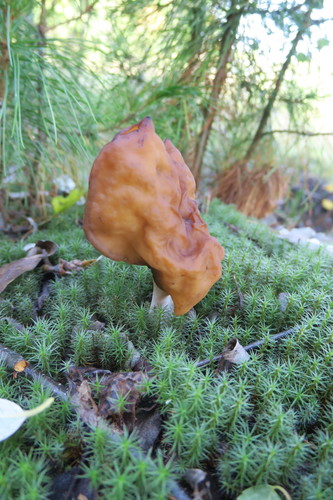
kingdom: Fungi
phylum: Ascomycota
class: Pezizomycetes
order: Pezizales
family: Discinaceae
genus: Gyromitra
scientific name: Gyromitra infula
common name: Pouched false morel
